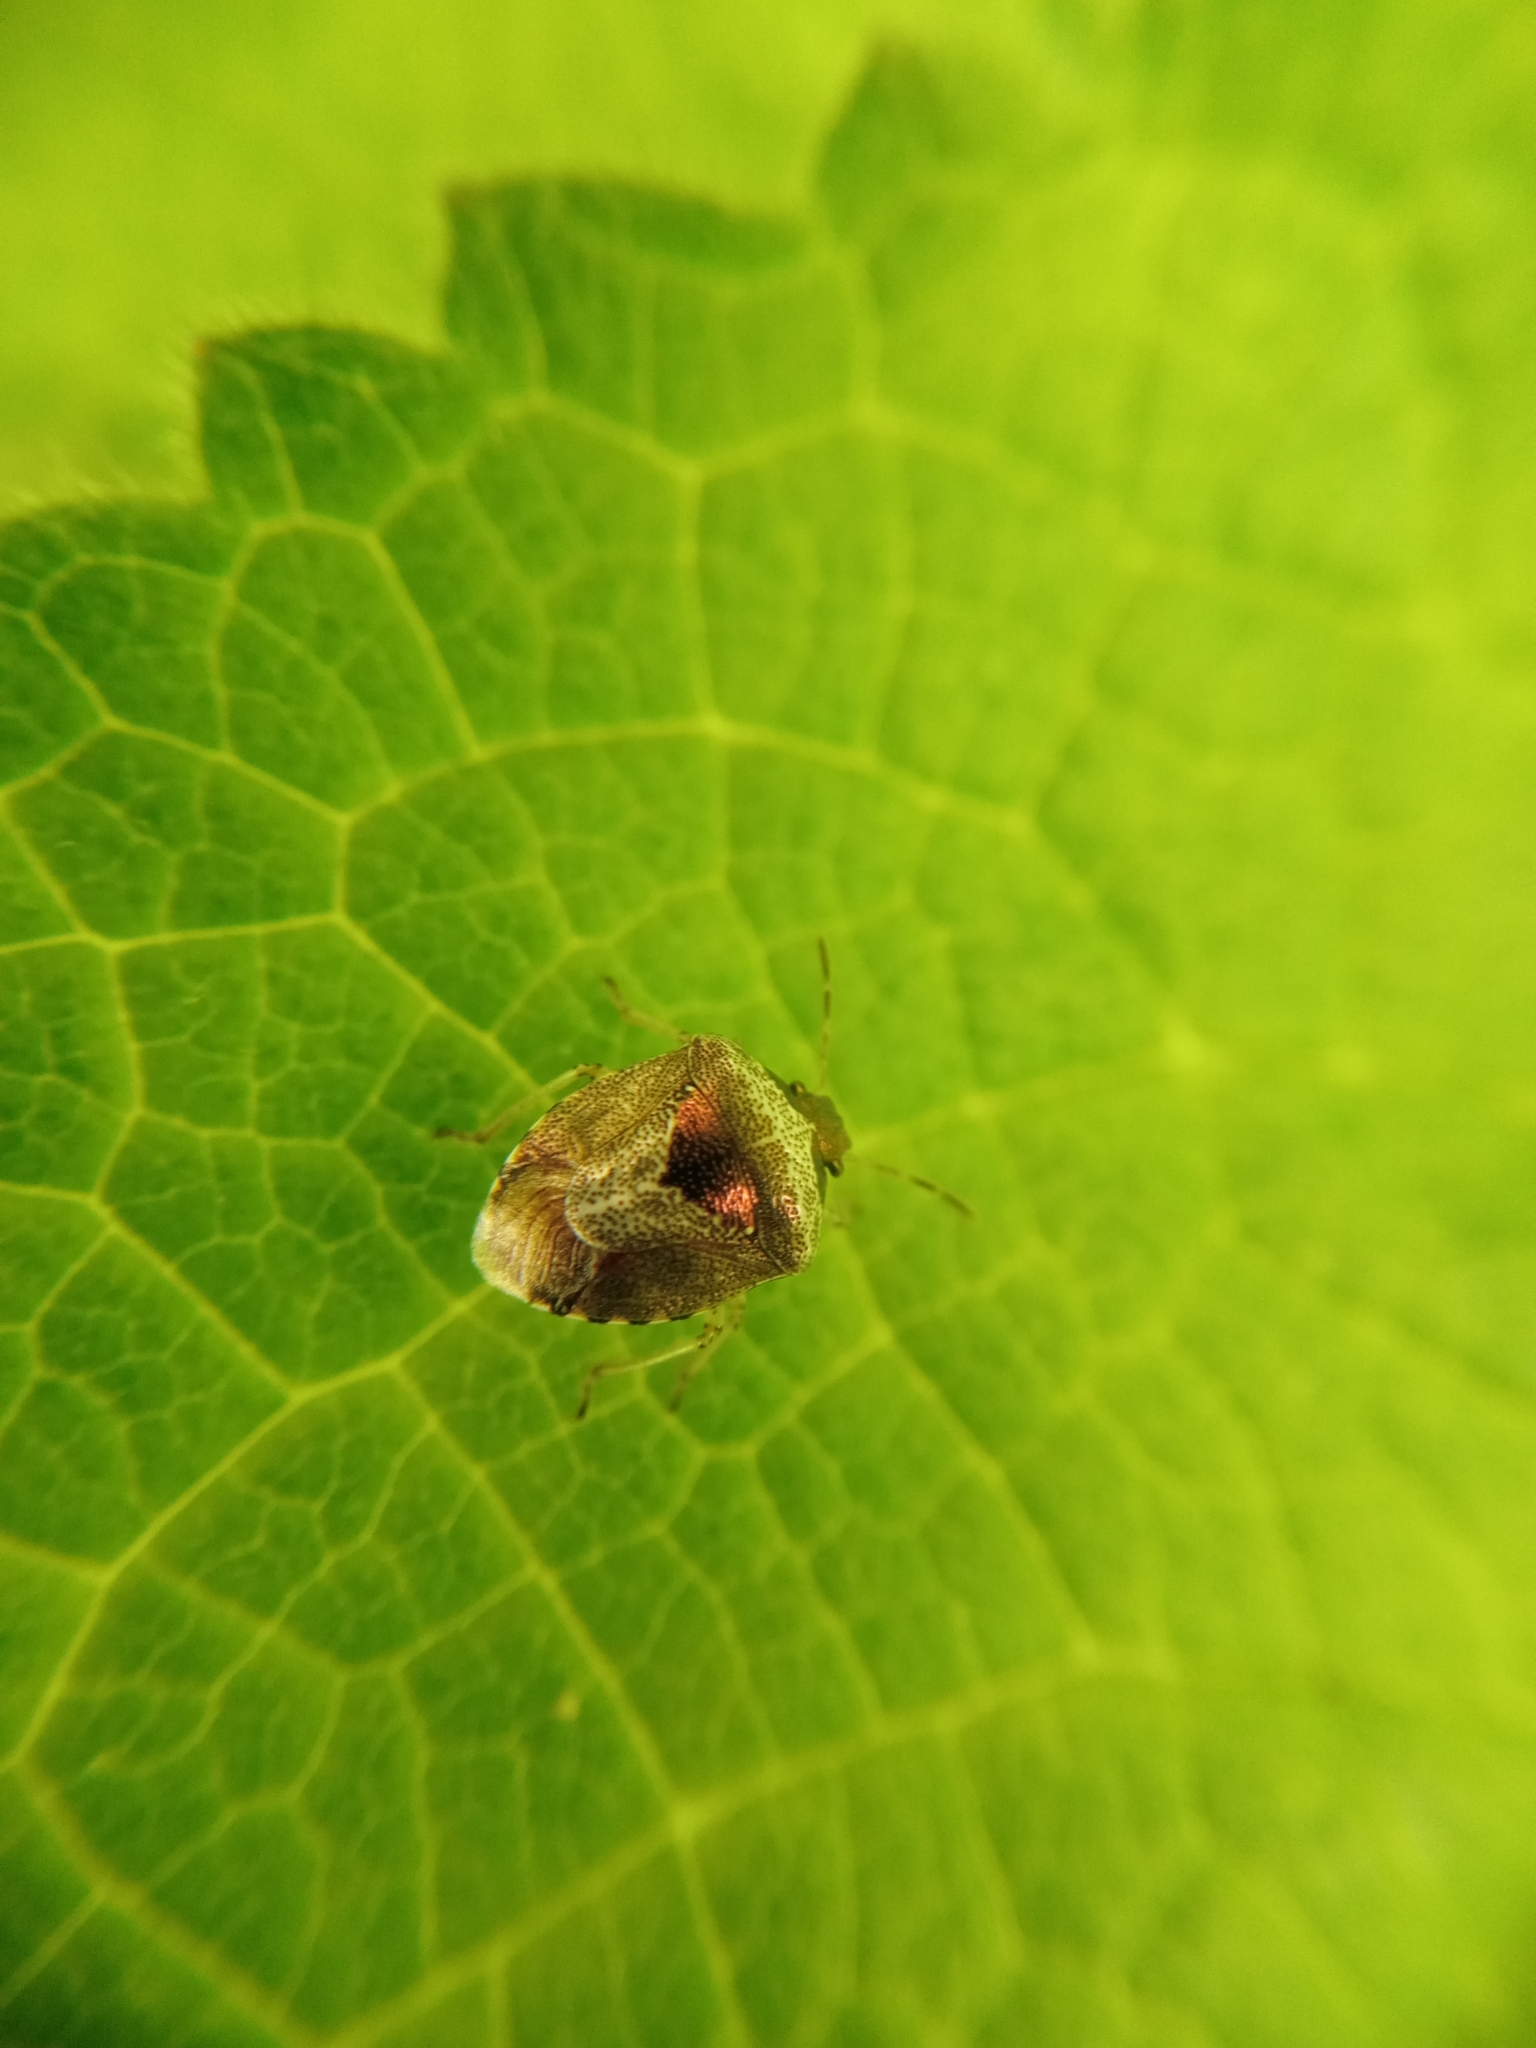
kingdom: Animalia
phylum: Arthropoda
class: Insecta
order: Hemiptera
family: Pentatomidae
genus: Eysarcoris
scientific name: Eysarcoris venustissimus
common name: Woundwort shieldbug
